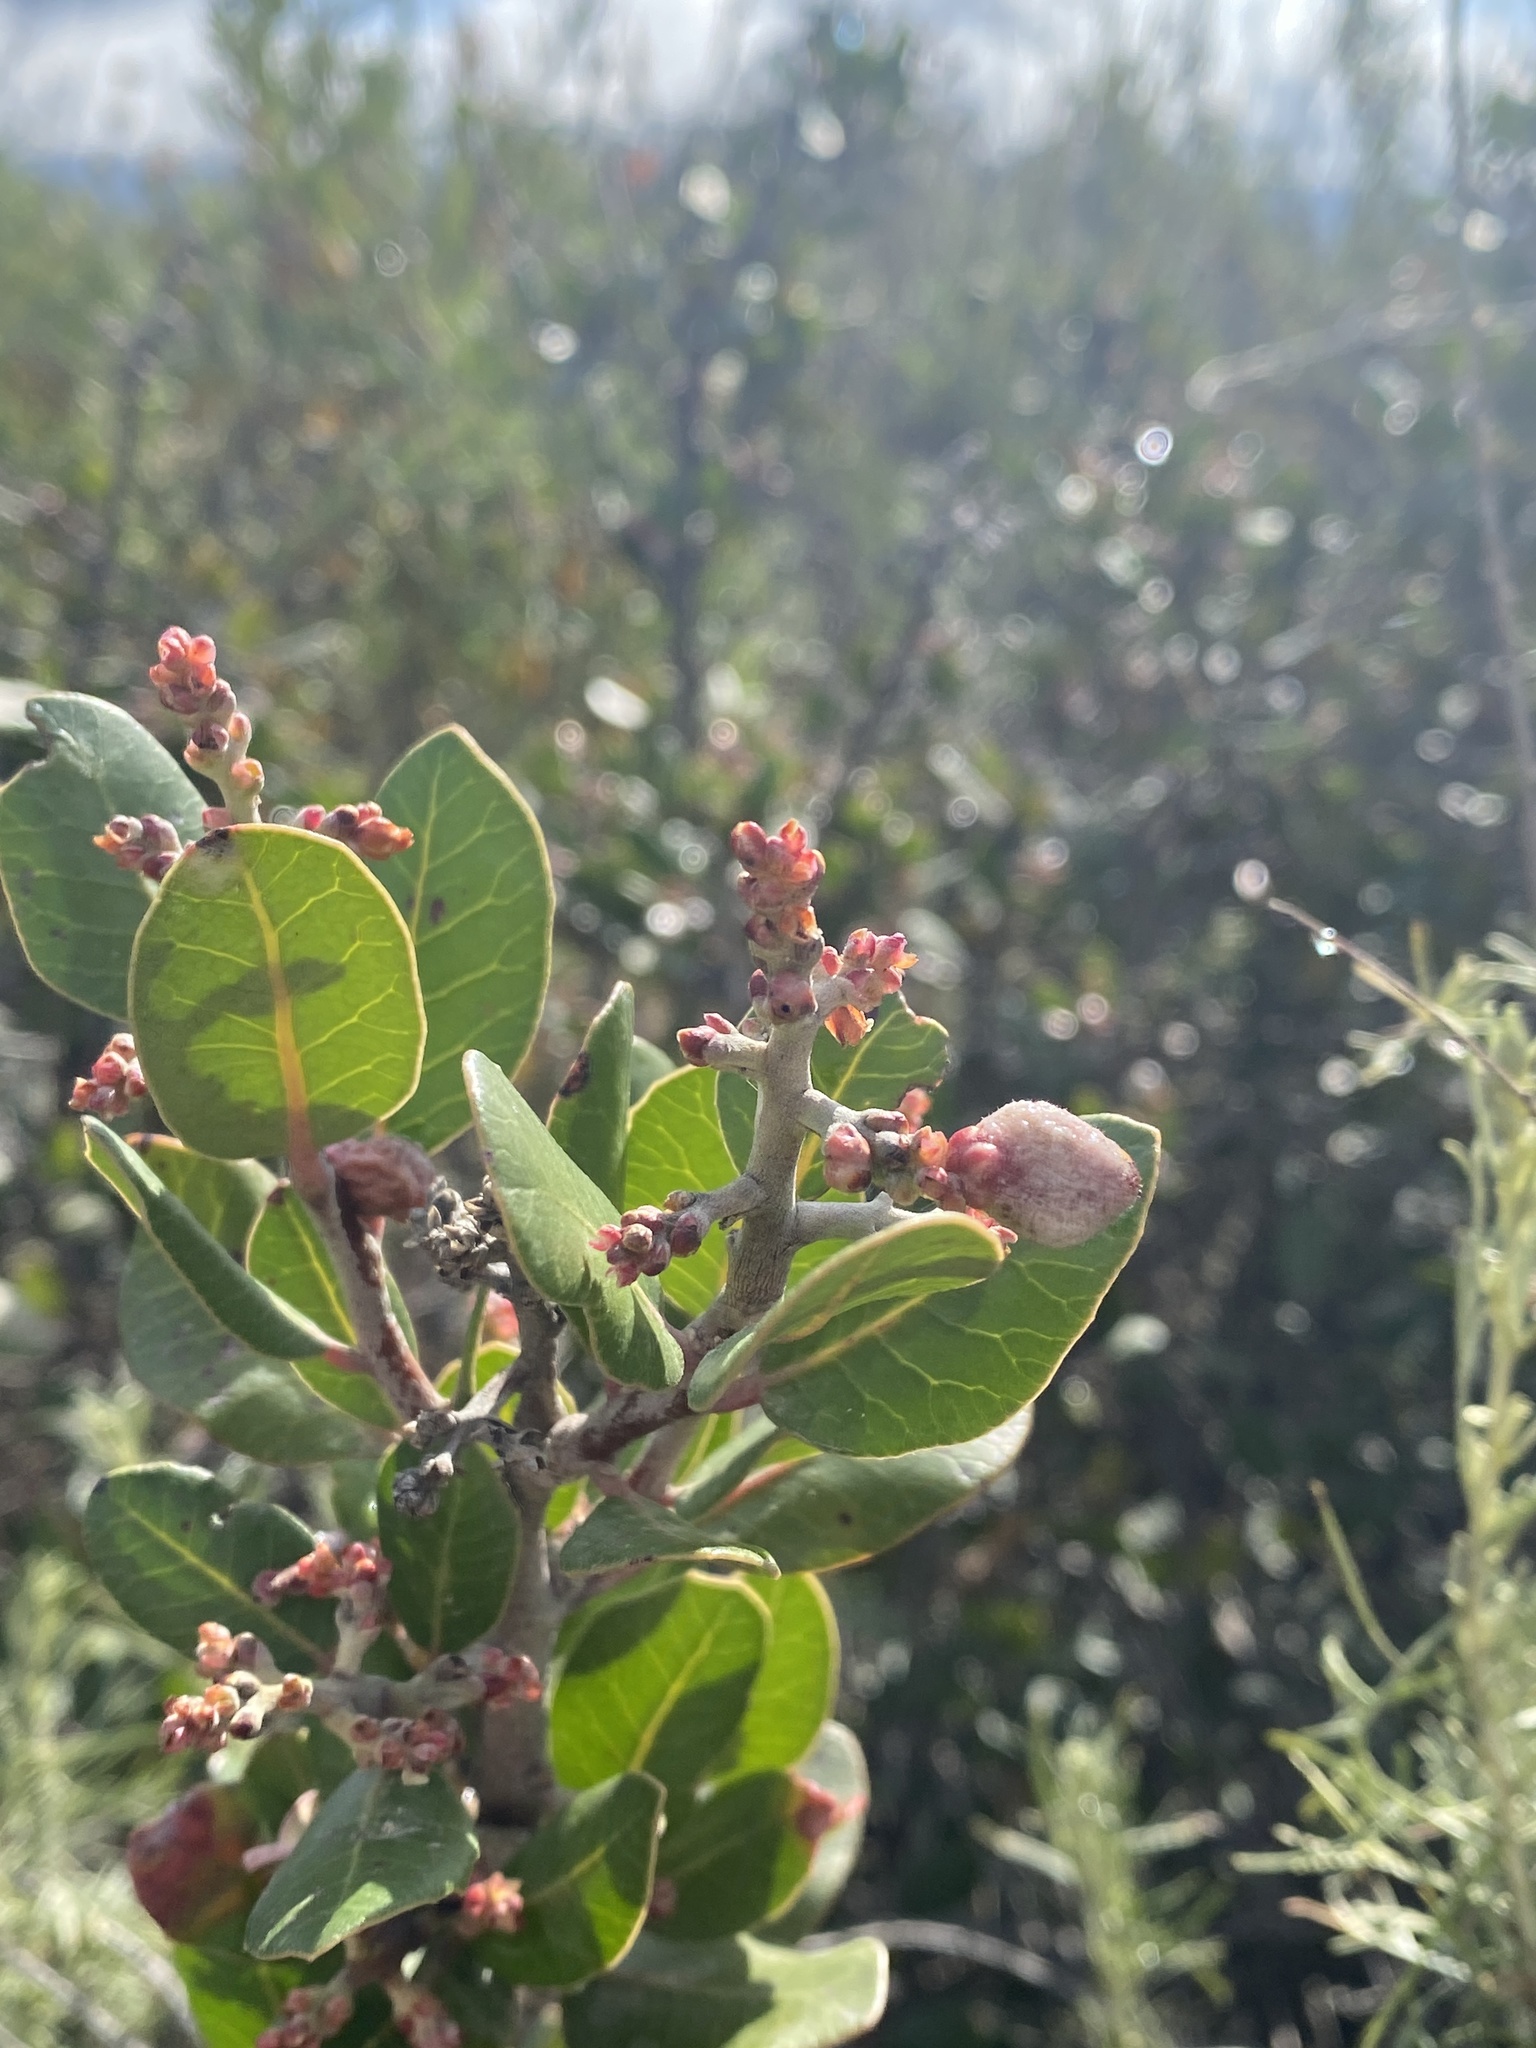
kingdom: Plantae
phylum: Tracheophyta
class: Magnoliopsida
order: Sapindales
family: Anacardiaceae
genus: Rhus
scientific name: Rhus integrifolia
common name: Lemonade sumac
